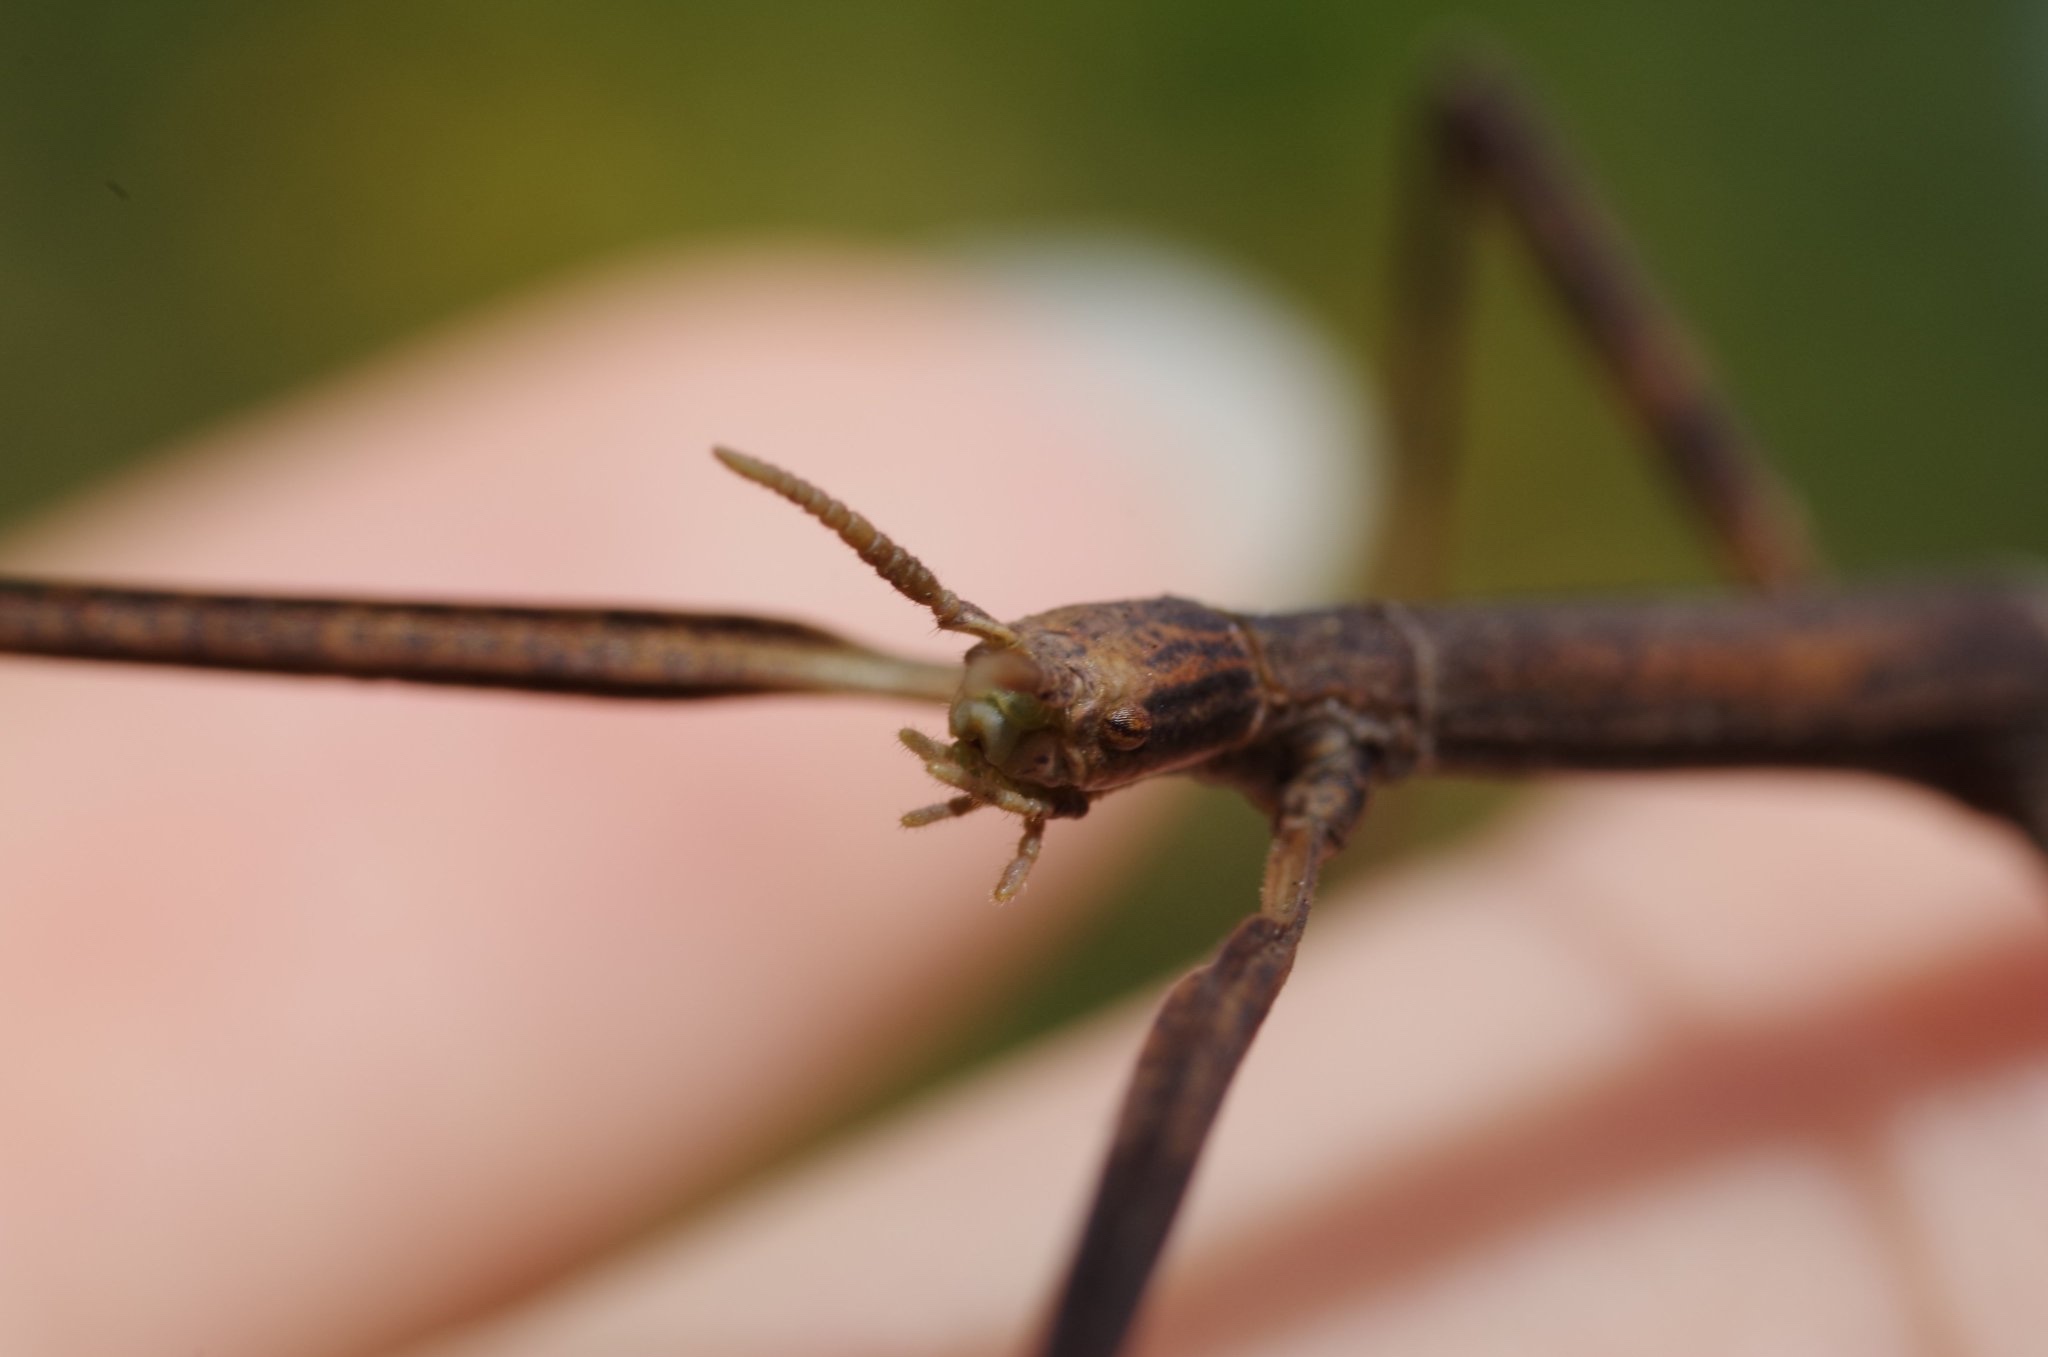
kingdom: Animalia
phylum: Arthropoda
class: Insecta
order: Phasmida
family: Bacillidae
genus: Clonopsis
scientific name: Clonopsis gallica
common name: French stick insect
